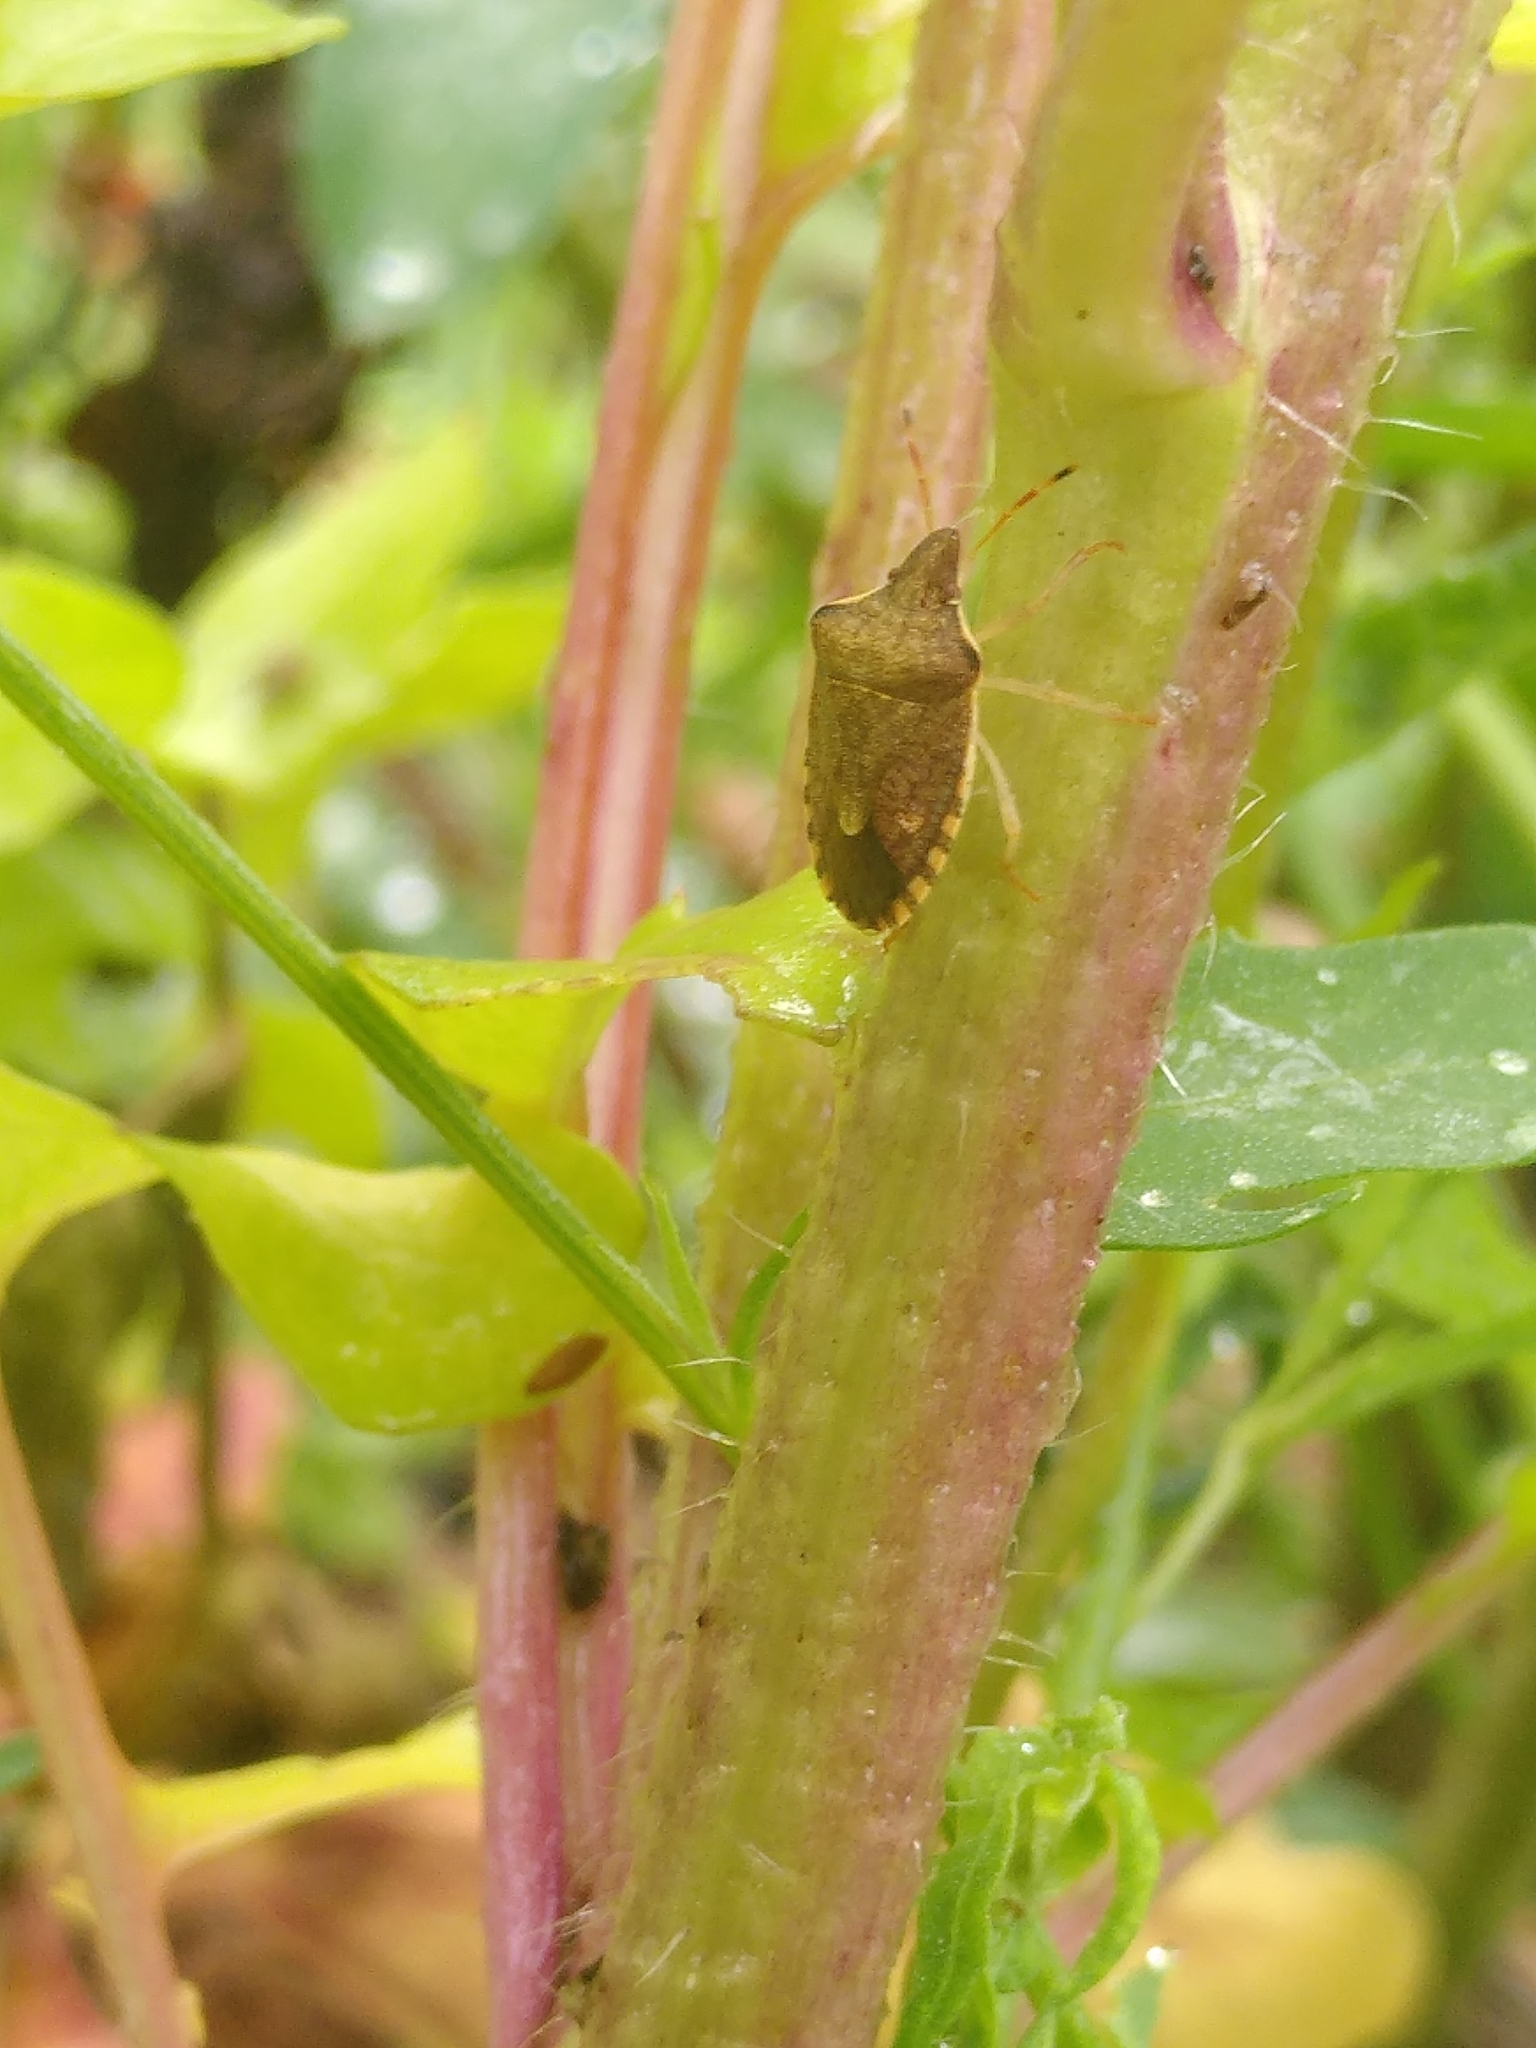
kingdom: Animalia
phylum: Arthropoda
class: Insecta
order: Hemiptera
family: Pentatomidae
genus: Holcostethus
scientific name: Holcostethus strictus
